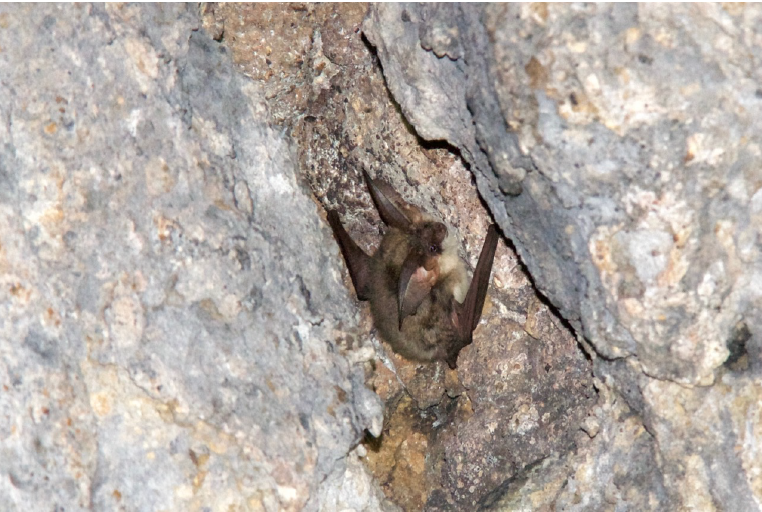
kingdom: Animalia
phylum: Chordata
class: Mammalia
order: Chiroptera
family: Vespertilionidae
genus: Plecotus
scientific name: Plecotus austriacus
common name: Grey long-eared bat
